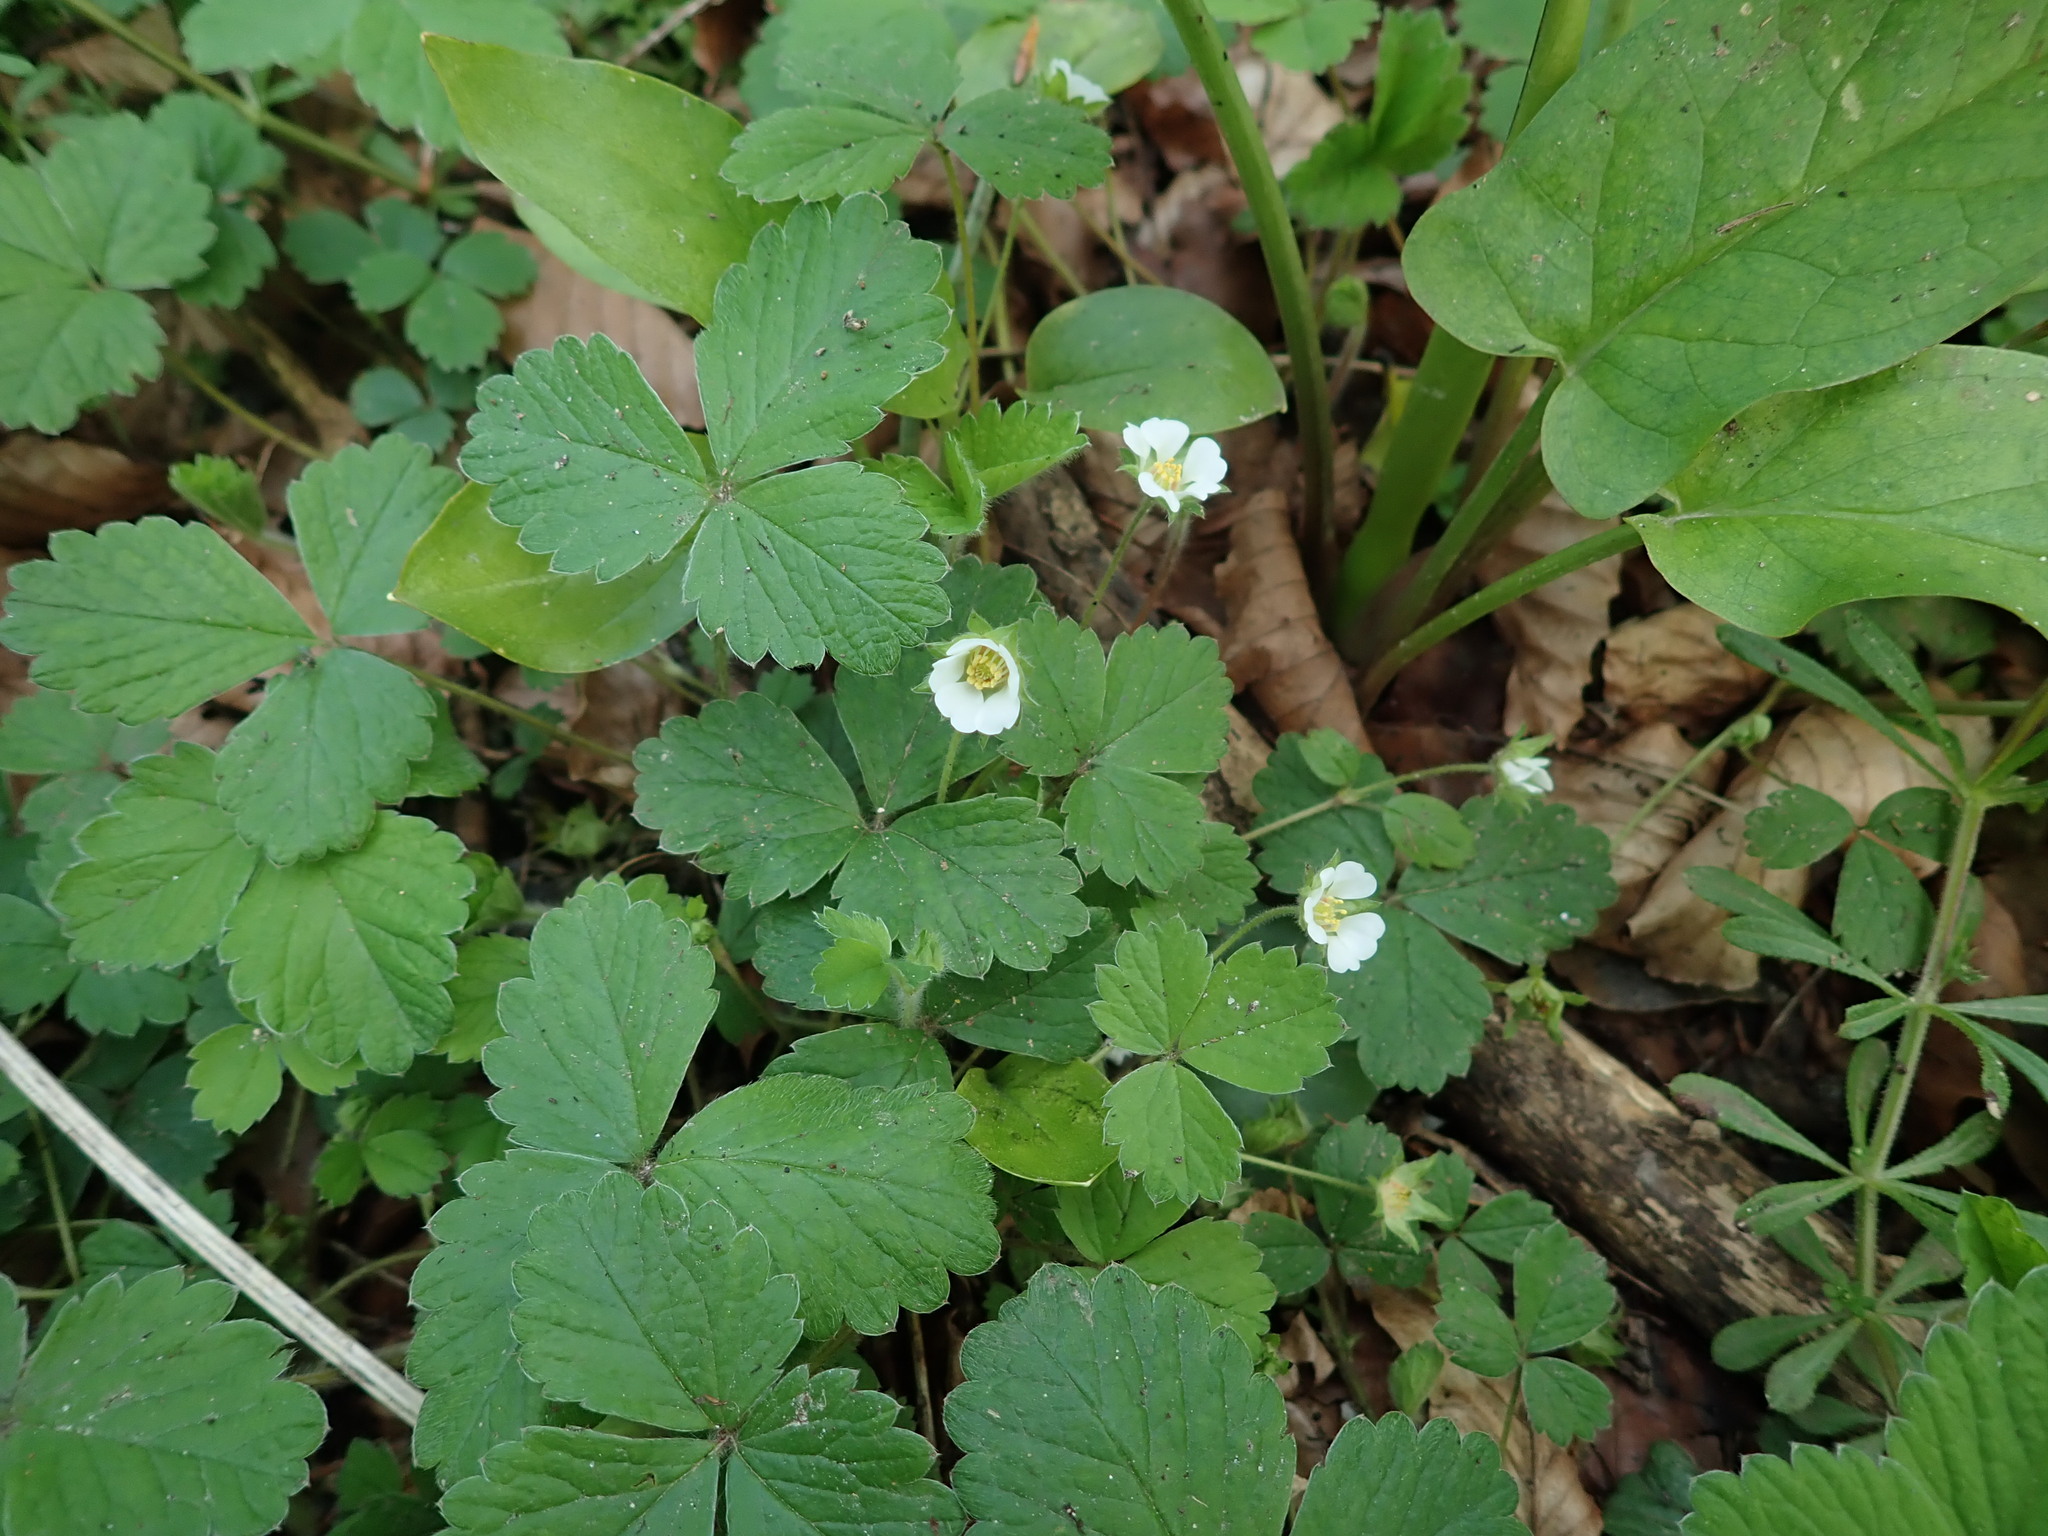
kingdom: Plantae
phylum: Tracheophyta
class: Magnoliopsida
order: Rosales
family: Rosaceae
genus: Potentilla
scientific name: Potentilla sterilis
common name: Barren strawberry
